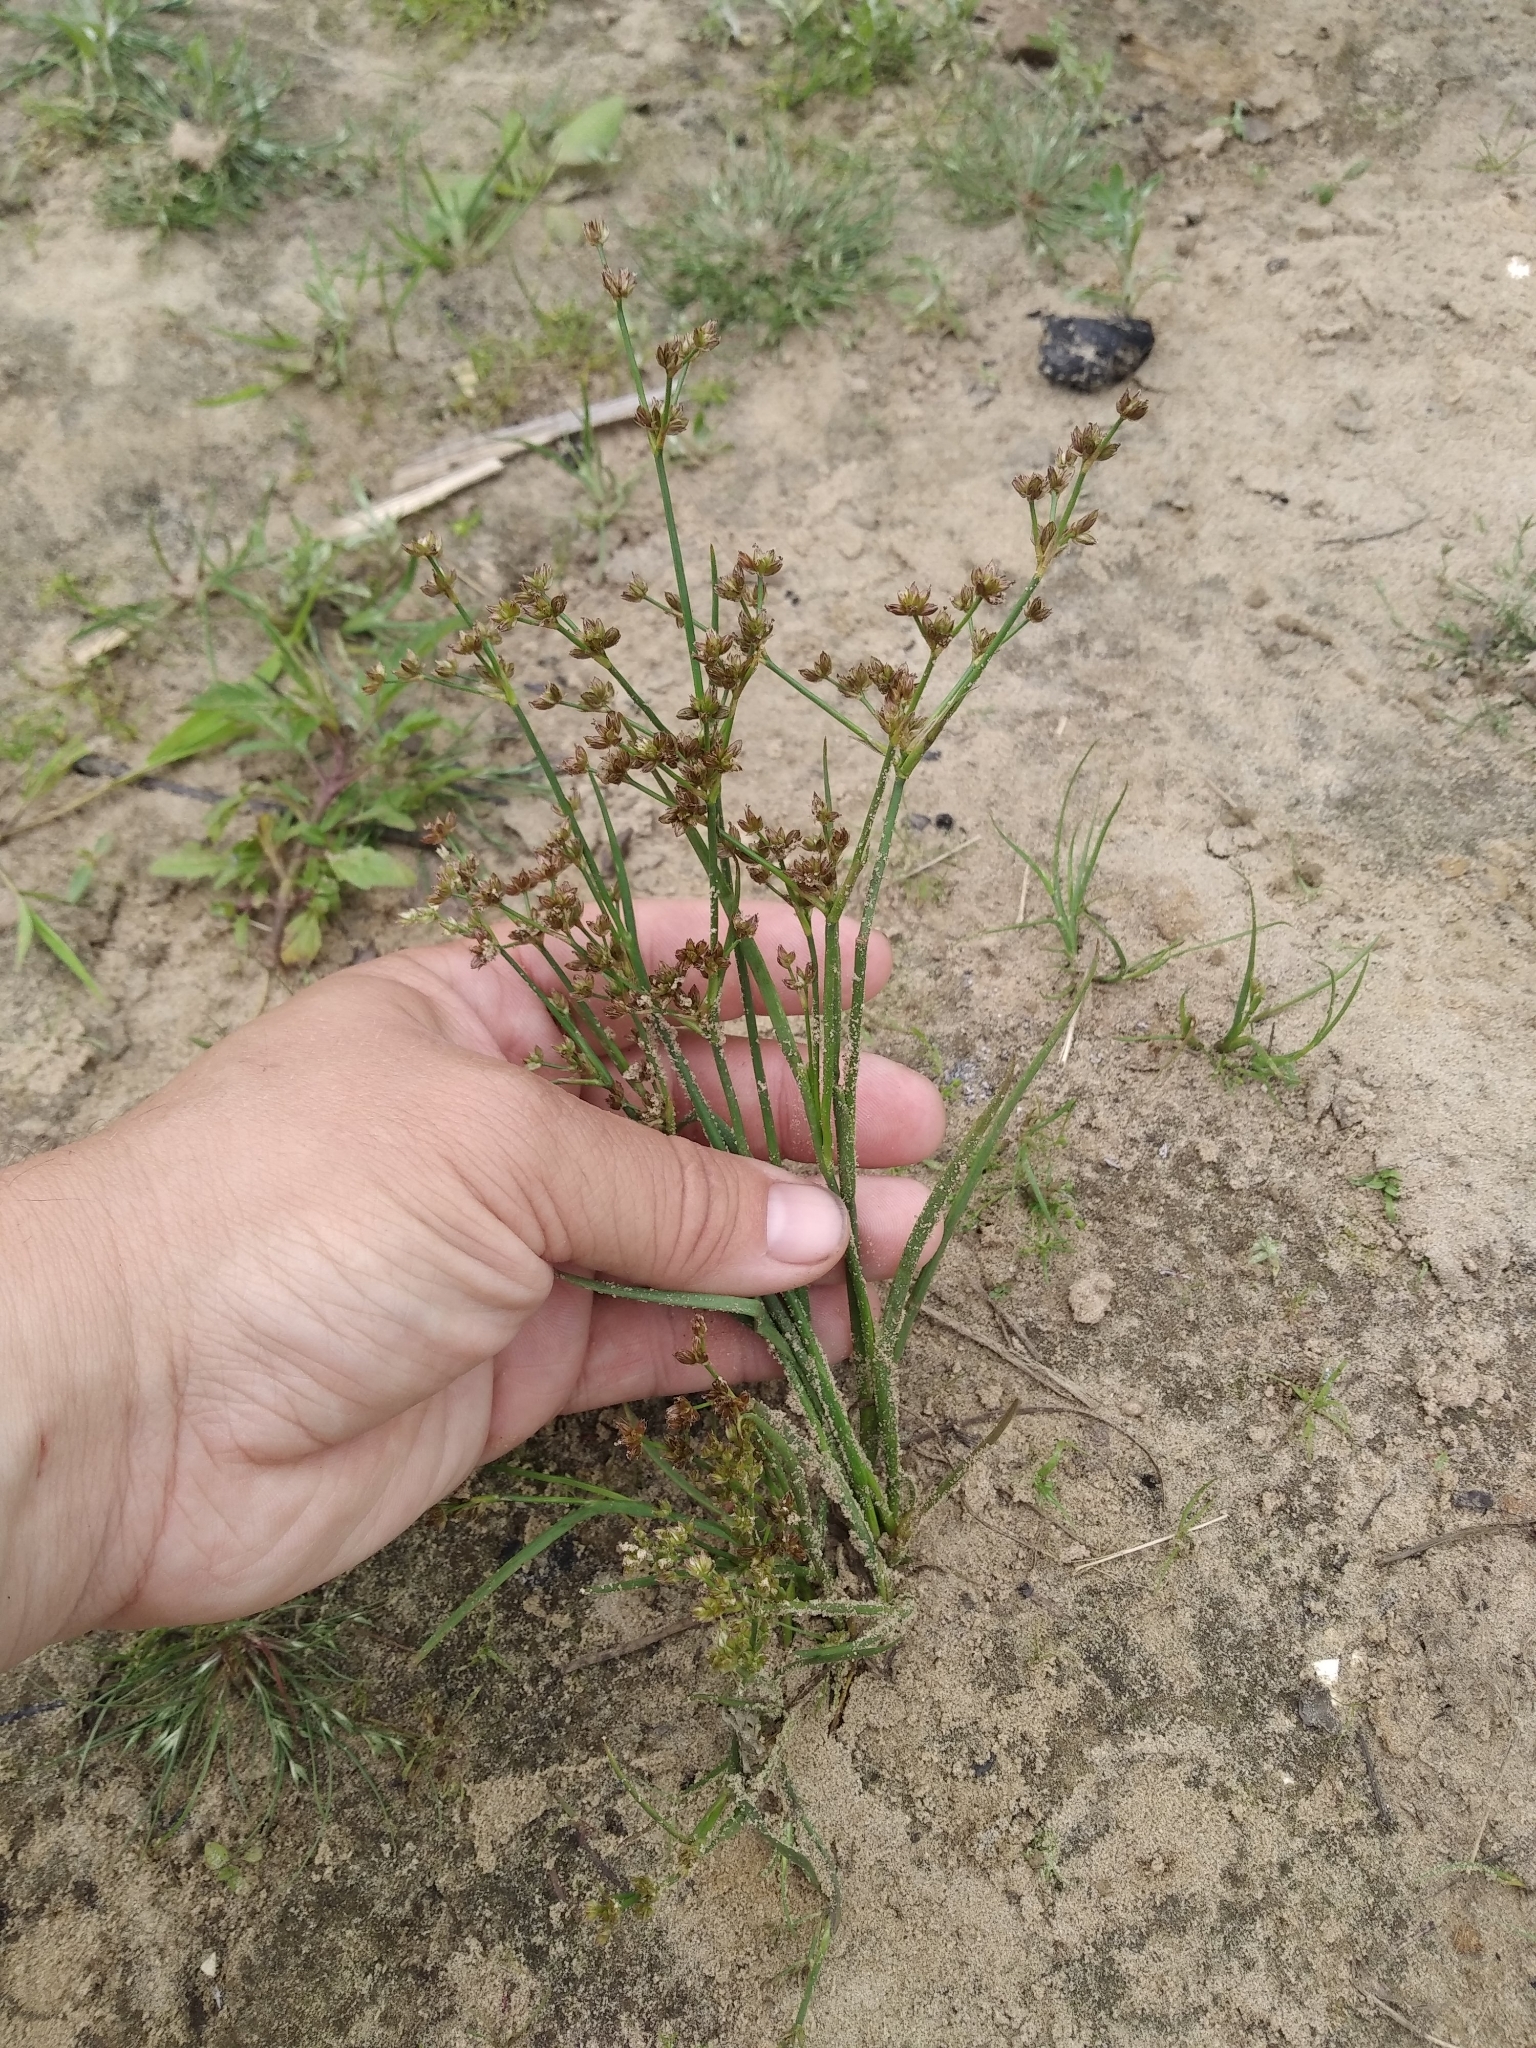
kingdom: Plantae
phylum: Tracheophyta
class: Liliopsida
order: Poales
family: Juncaceae
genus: Juncus
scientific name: Juncus articulatus
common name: Jointed rush
